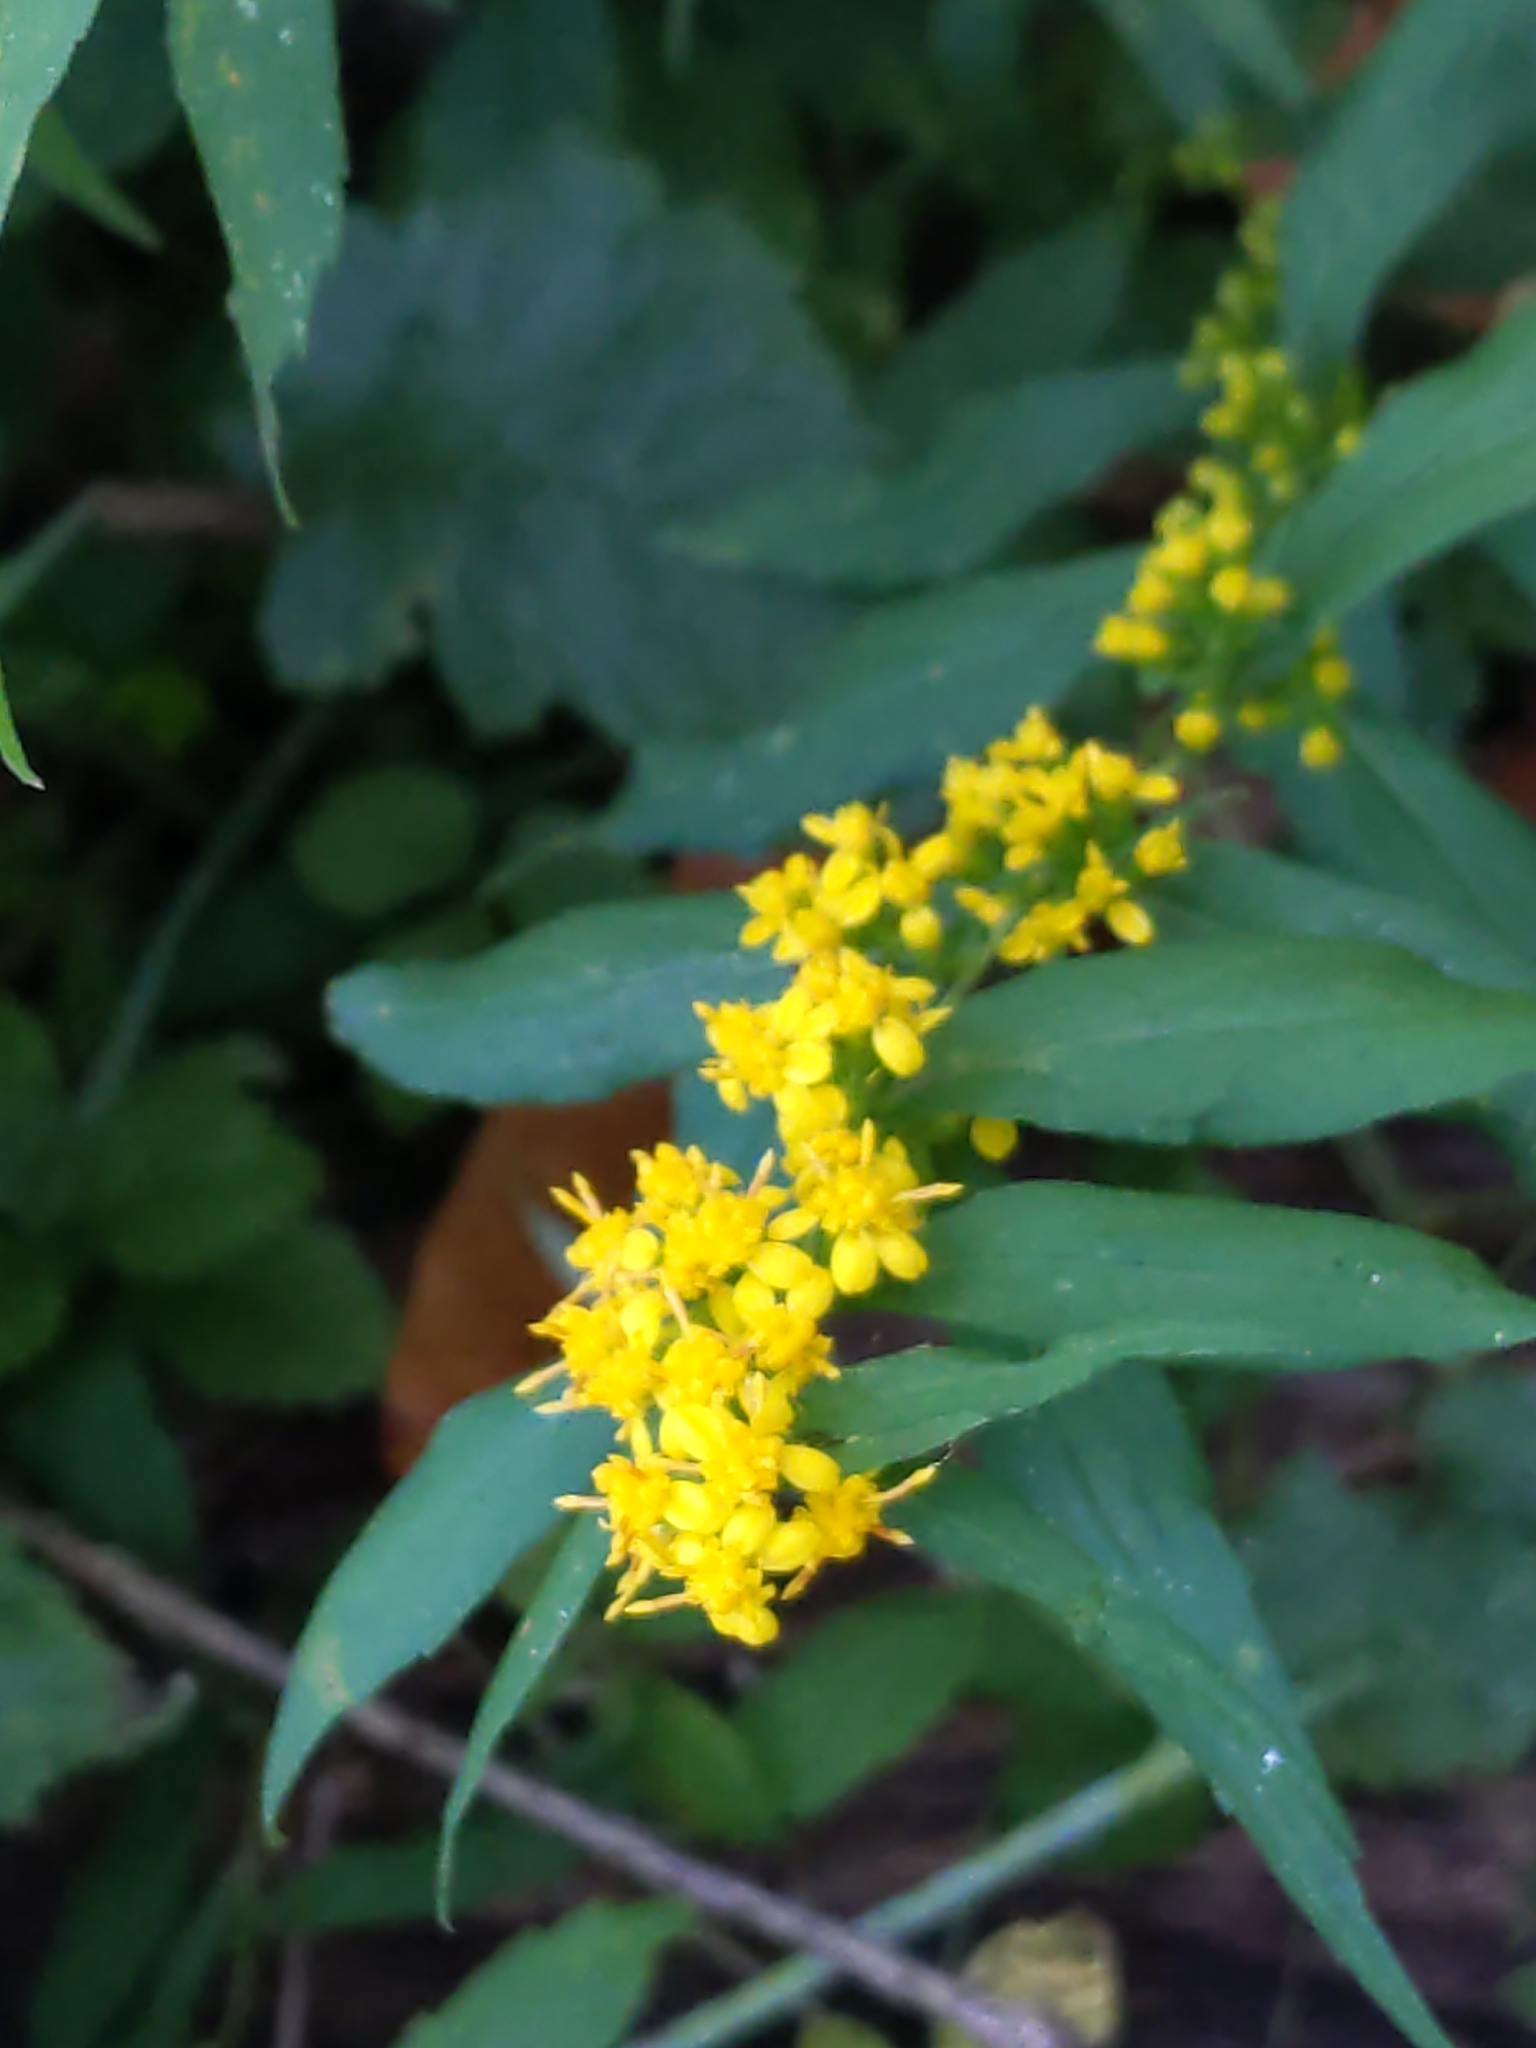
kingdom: Plantae
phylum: Tracheophyta
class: Magnoliopsida
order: Asterales
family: Asteraceae
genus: Solidago
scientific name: Solidago caesia
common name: Woodland goldenrod
